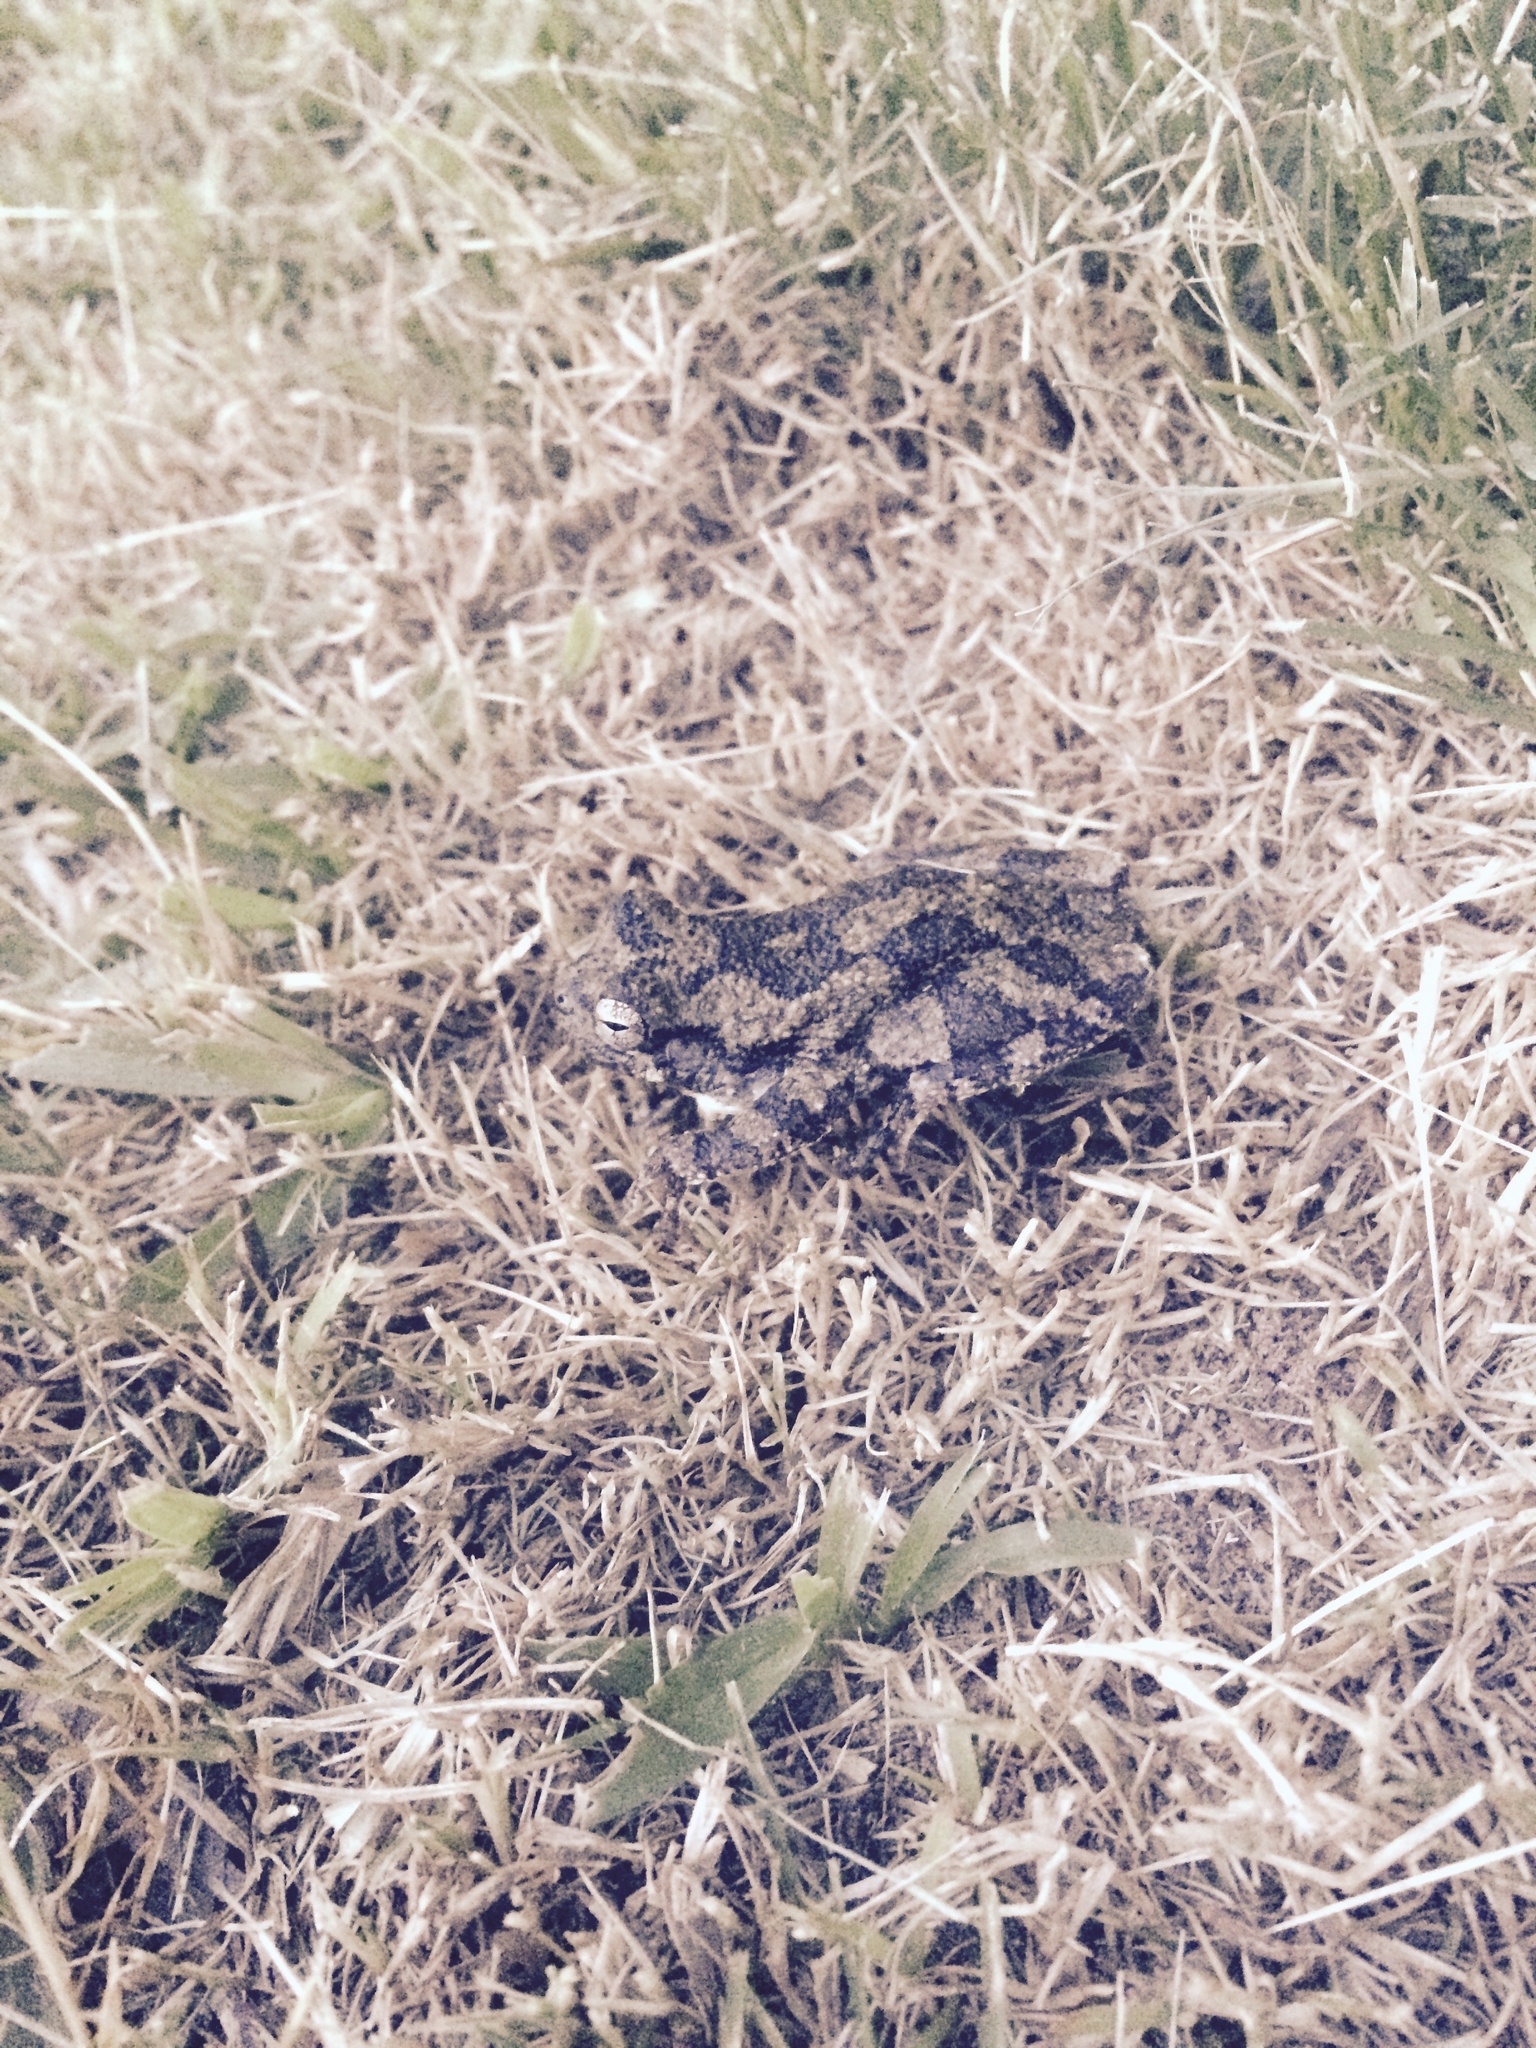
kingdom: Animalia
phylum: Chordata
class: Amphibia
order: Anura
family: Hylidae
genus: Dryophytes
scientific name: Dryophytes chrysoscelis
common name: Cope's gray treefrog
